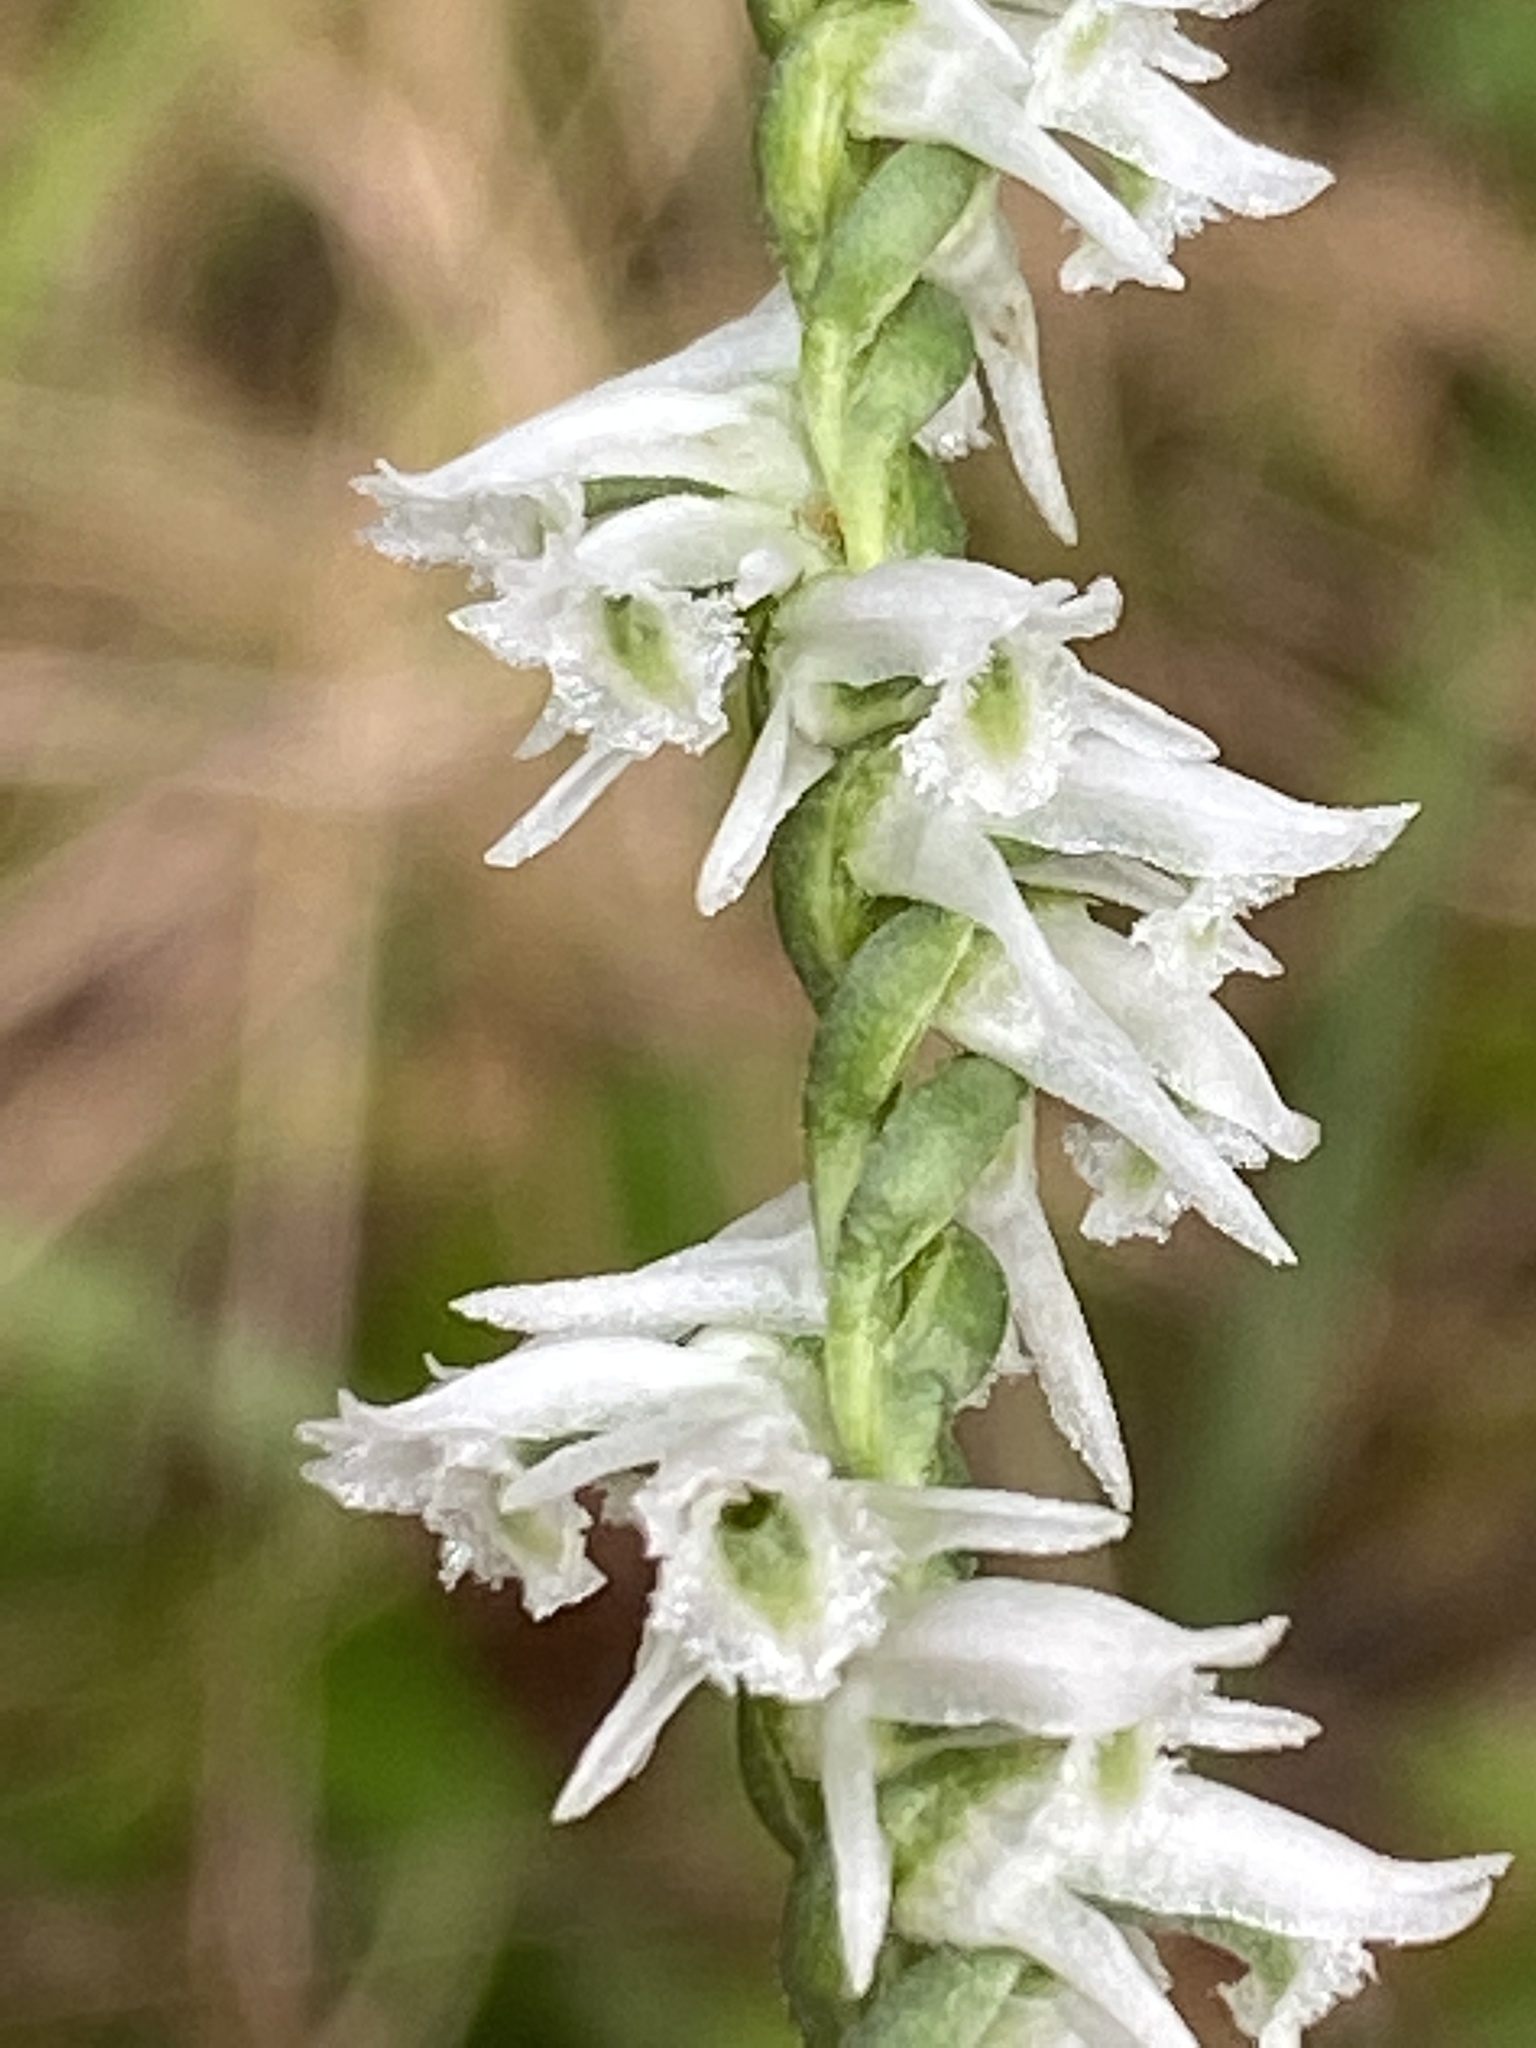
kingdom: Plantae
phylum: Tracheophyta
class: Liliopsida
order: Asparagales
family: Orchidaceae
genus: Spiranthes
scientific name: Spiranthes lacera
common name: Northern slender ladies'-tresses
